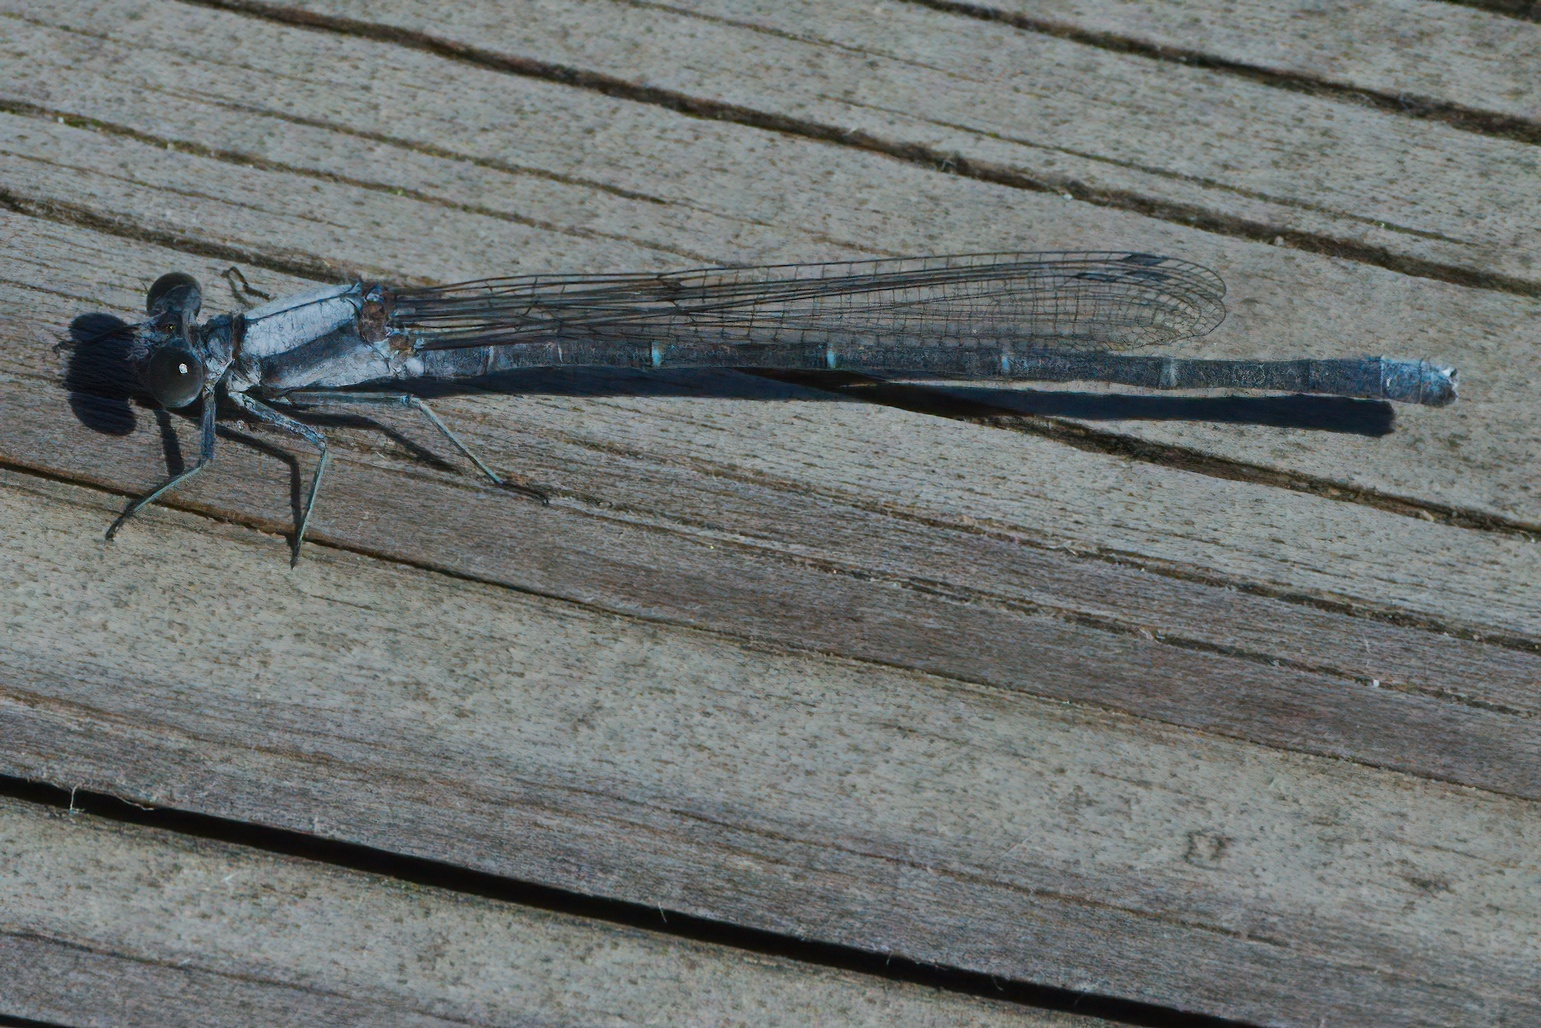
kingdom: Animalia
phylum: Arthropoda
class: Insecta
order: Odonata
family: Coenagrionidae
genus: Argia
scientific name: Argia moesta
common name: Powdered dancer
